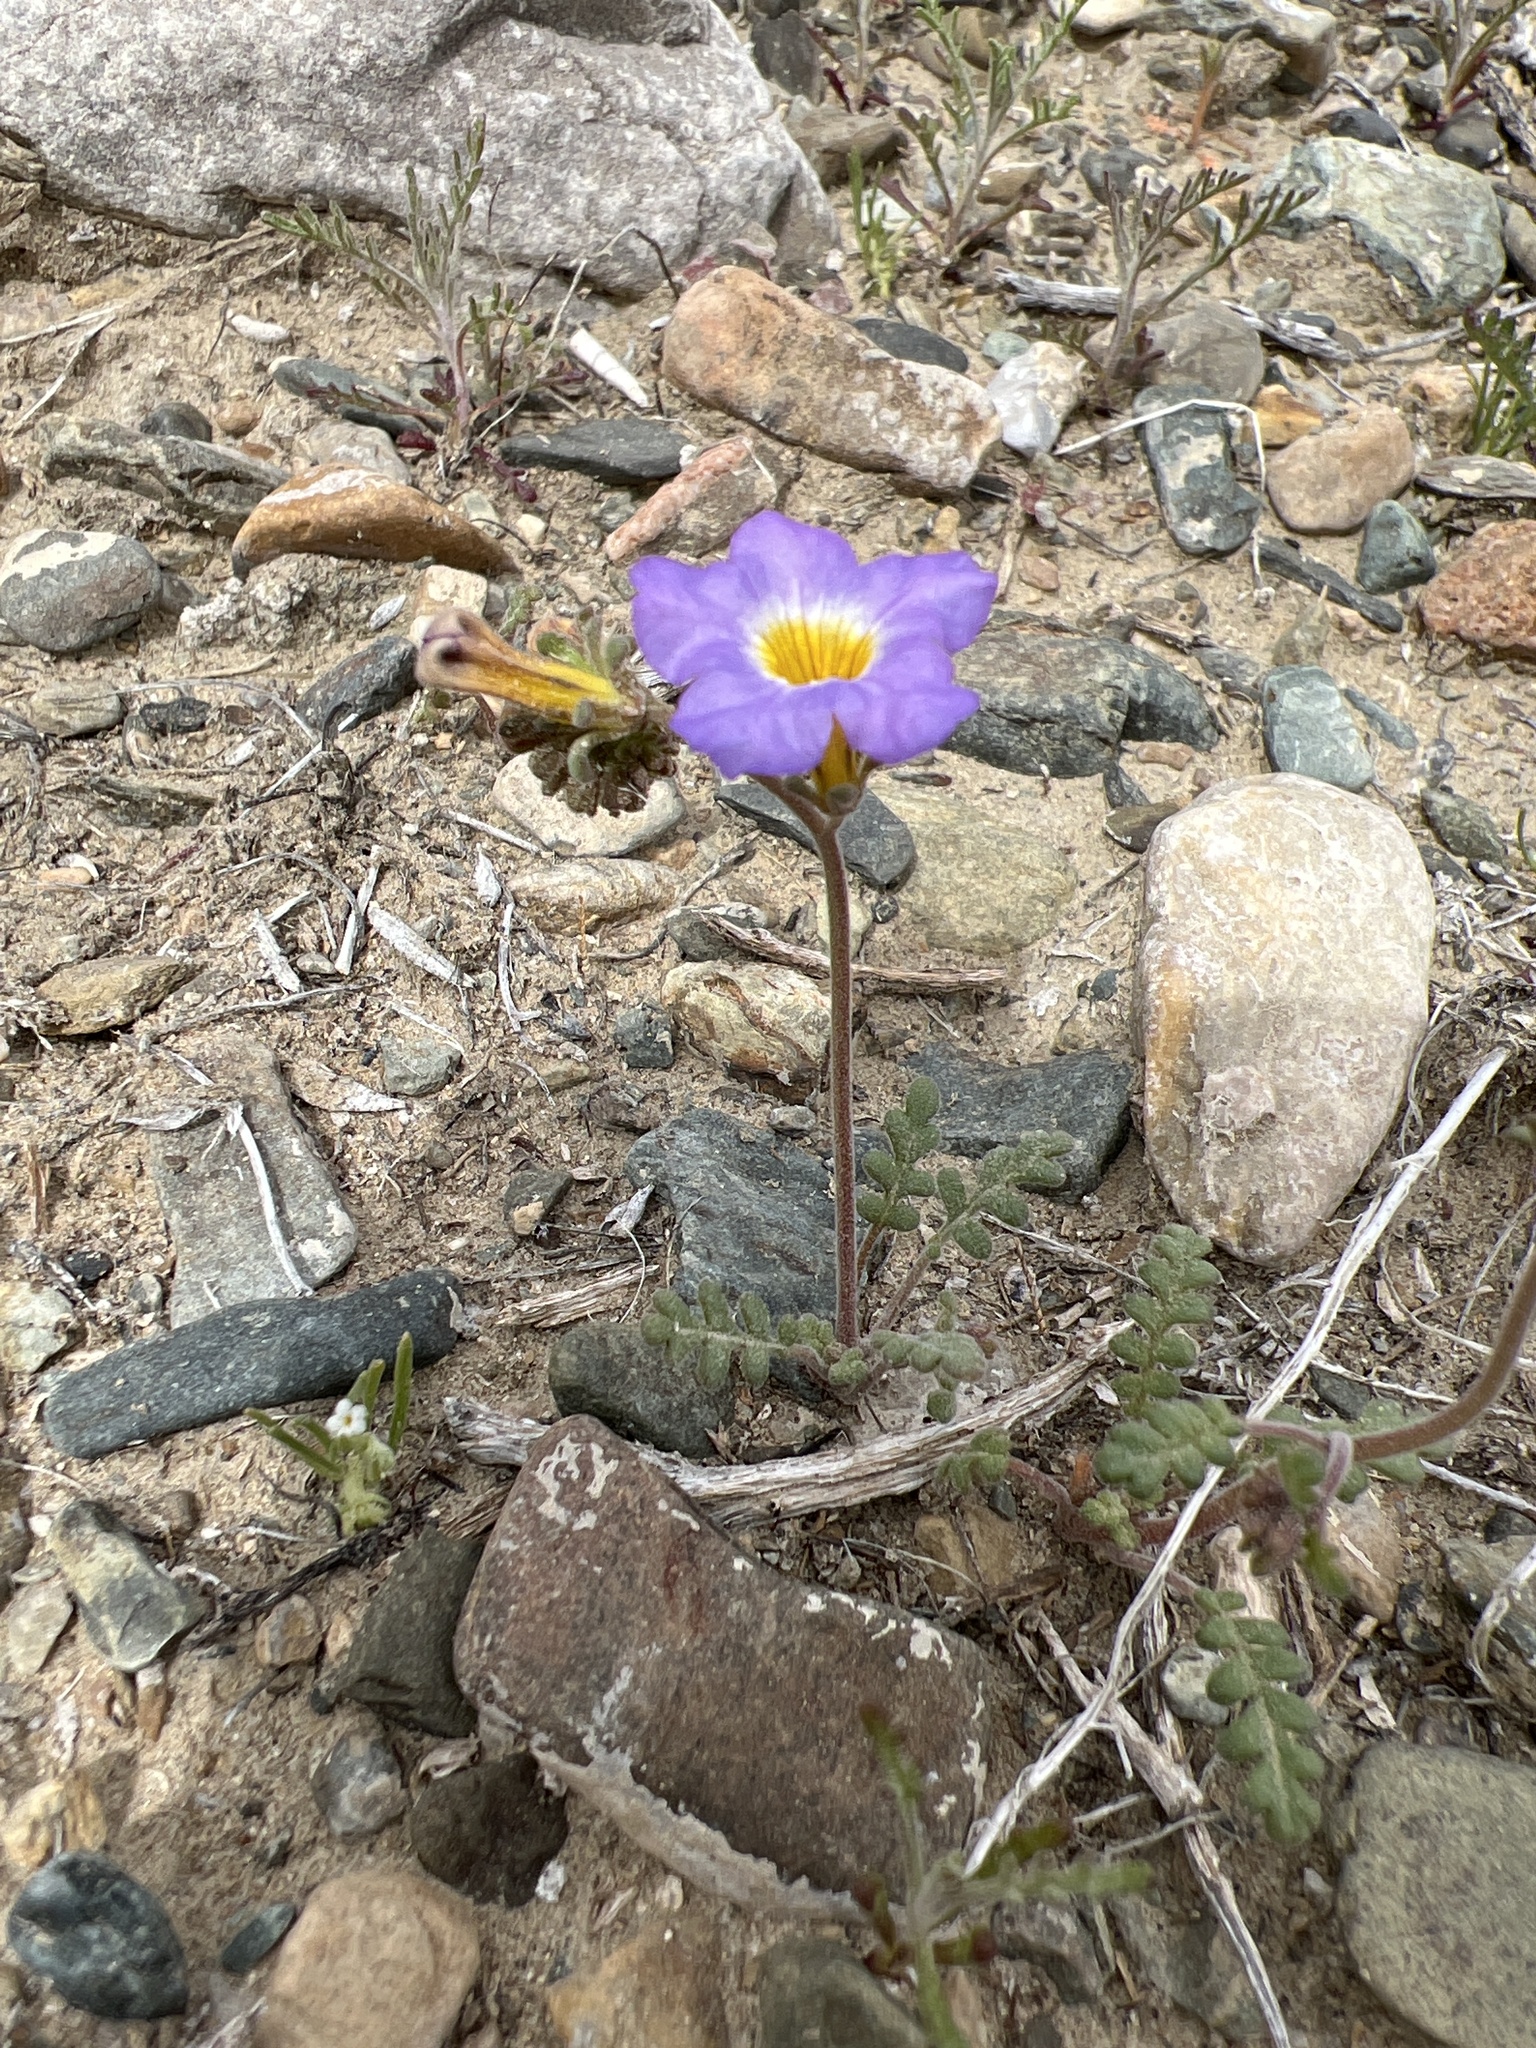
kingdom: Plantae
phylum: Tracheophyta
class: Magnoliopsida
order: Boraginales
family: Hydrophyllaceae
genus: Phacelia
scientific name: Phacelia fremontii
